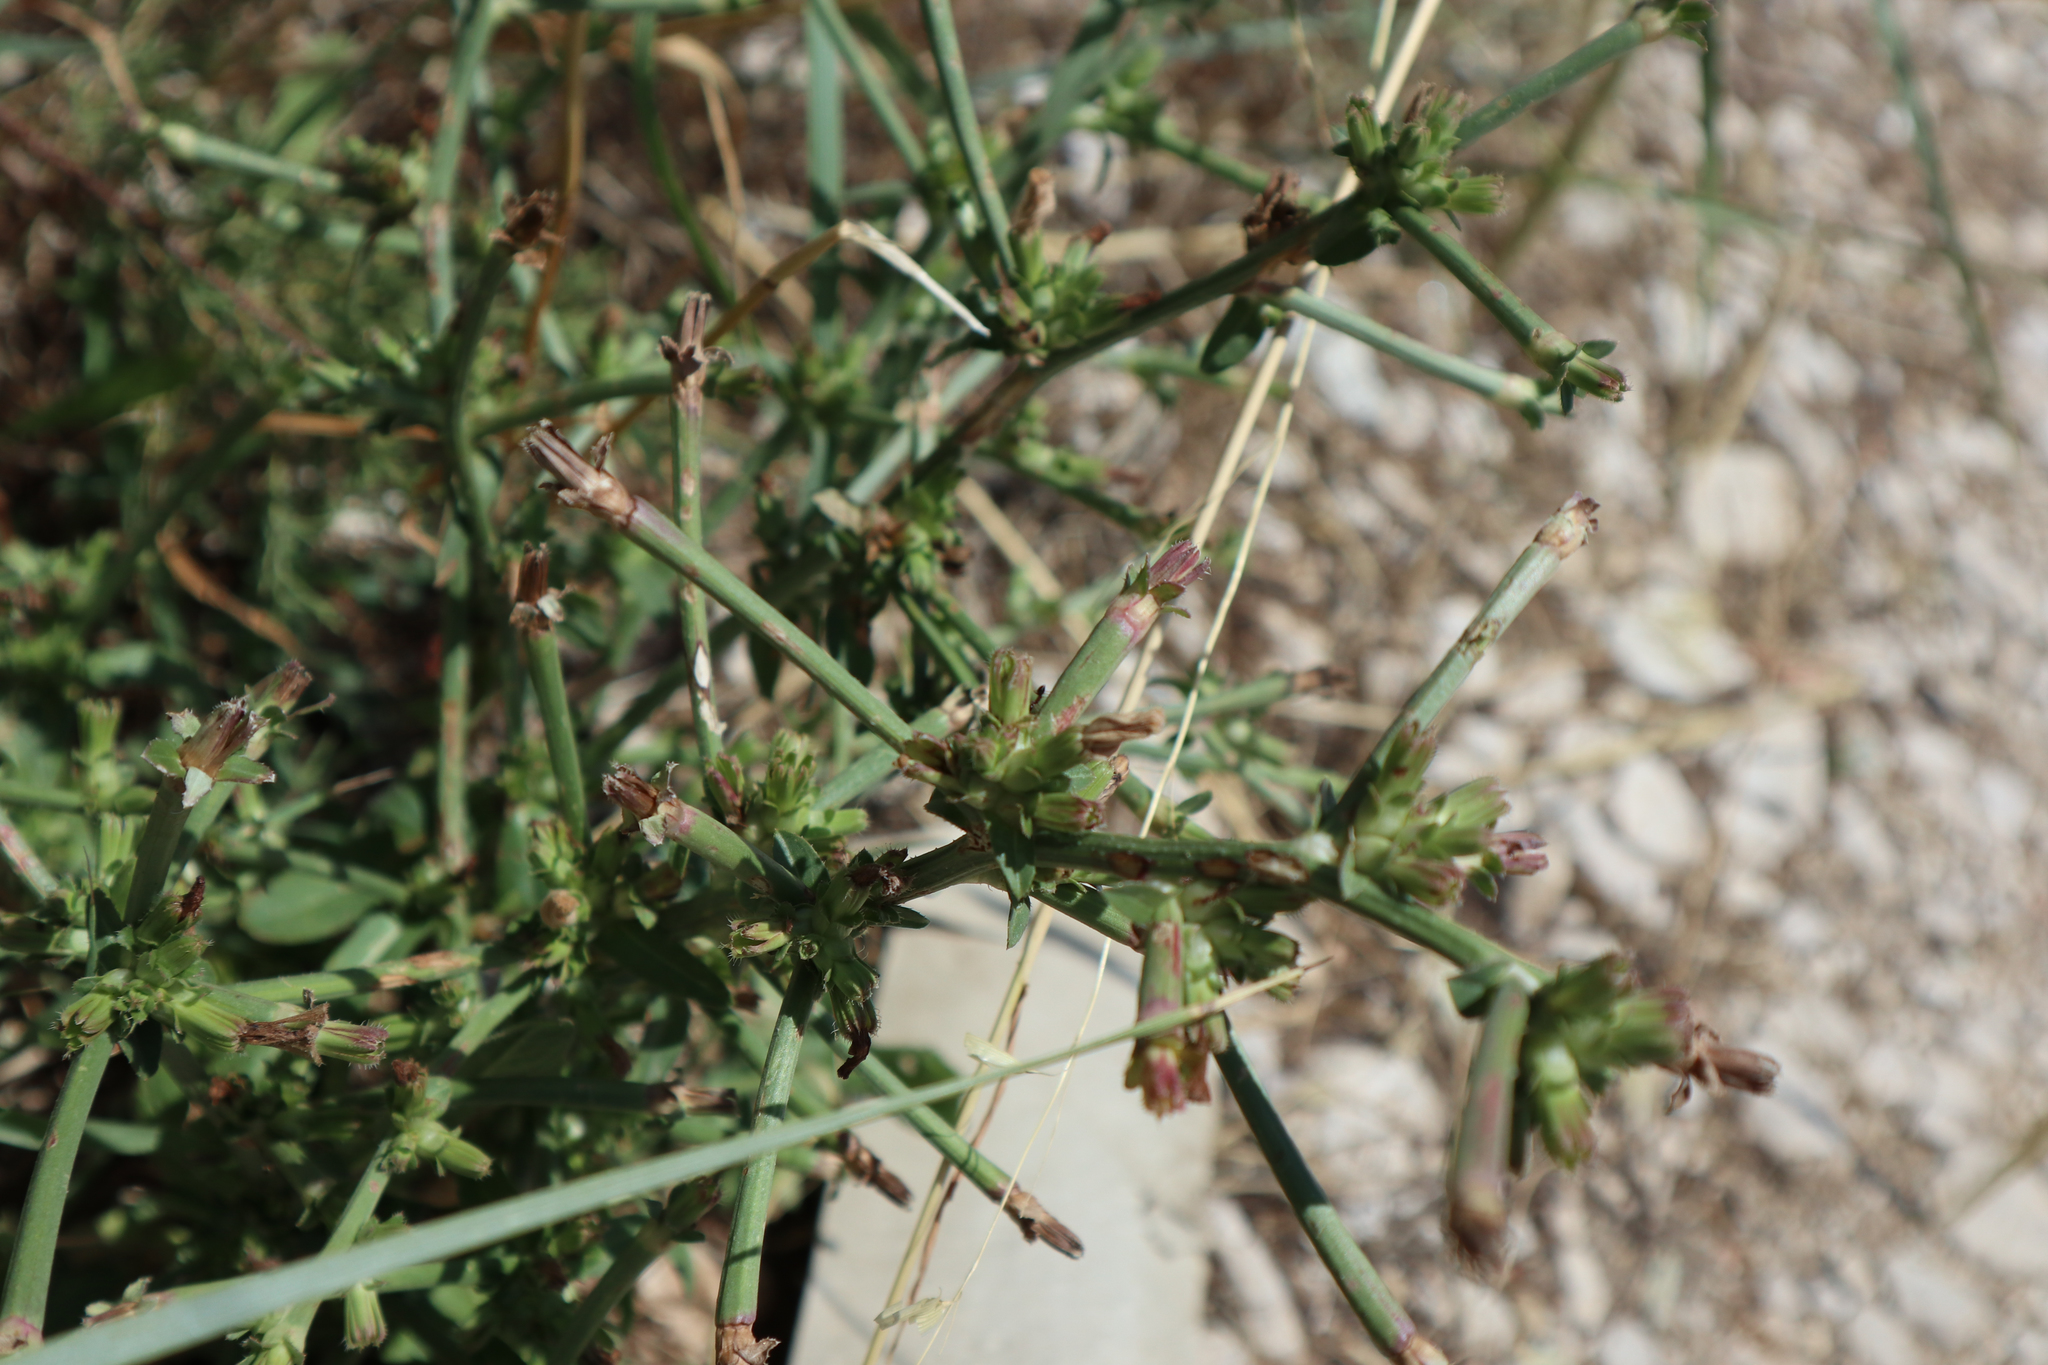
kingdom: Plantae
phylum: Tracheophyta
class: Magnoliopsida
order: Asterales
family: Asteraceae
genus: Cichorium
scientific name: Cichorium intybus
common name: Chicory
